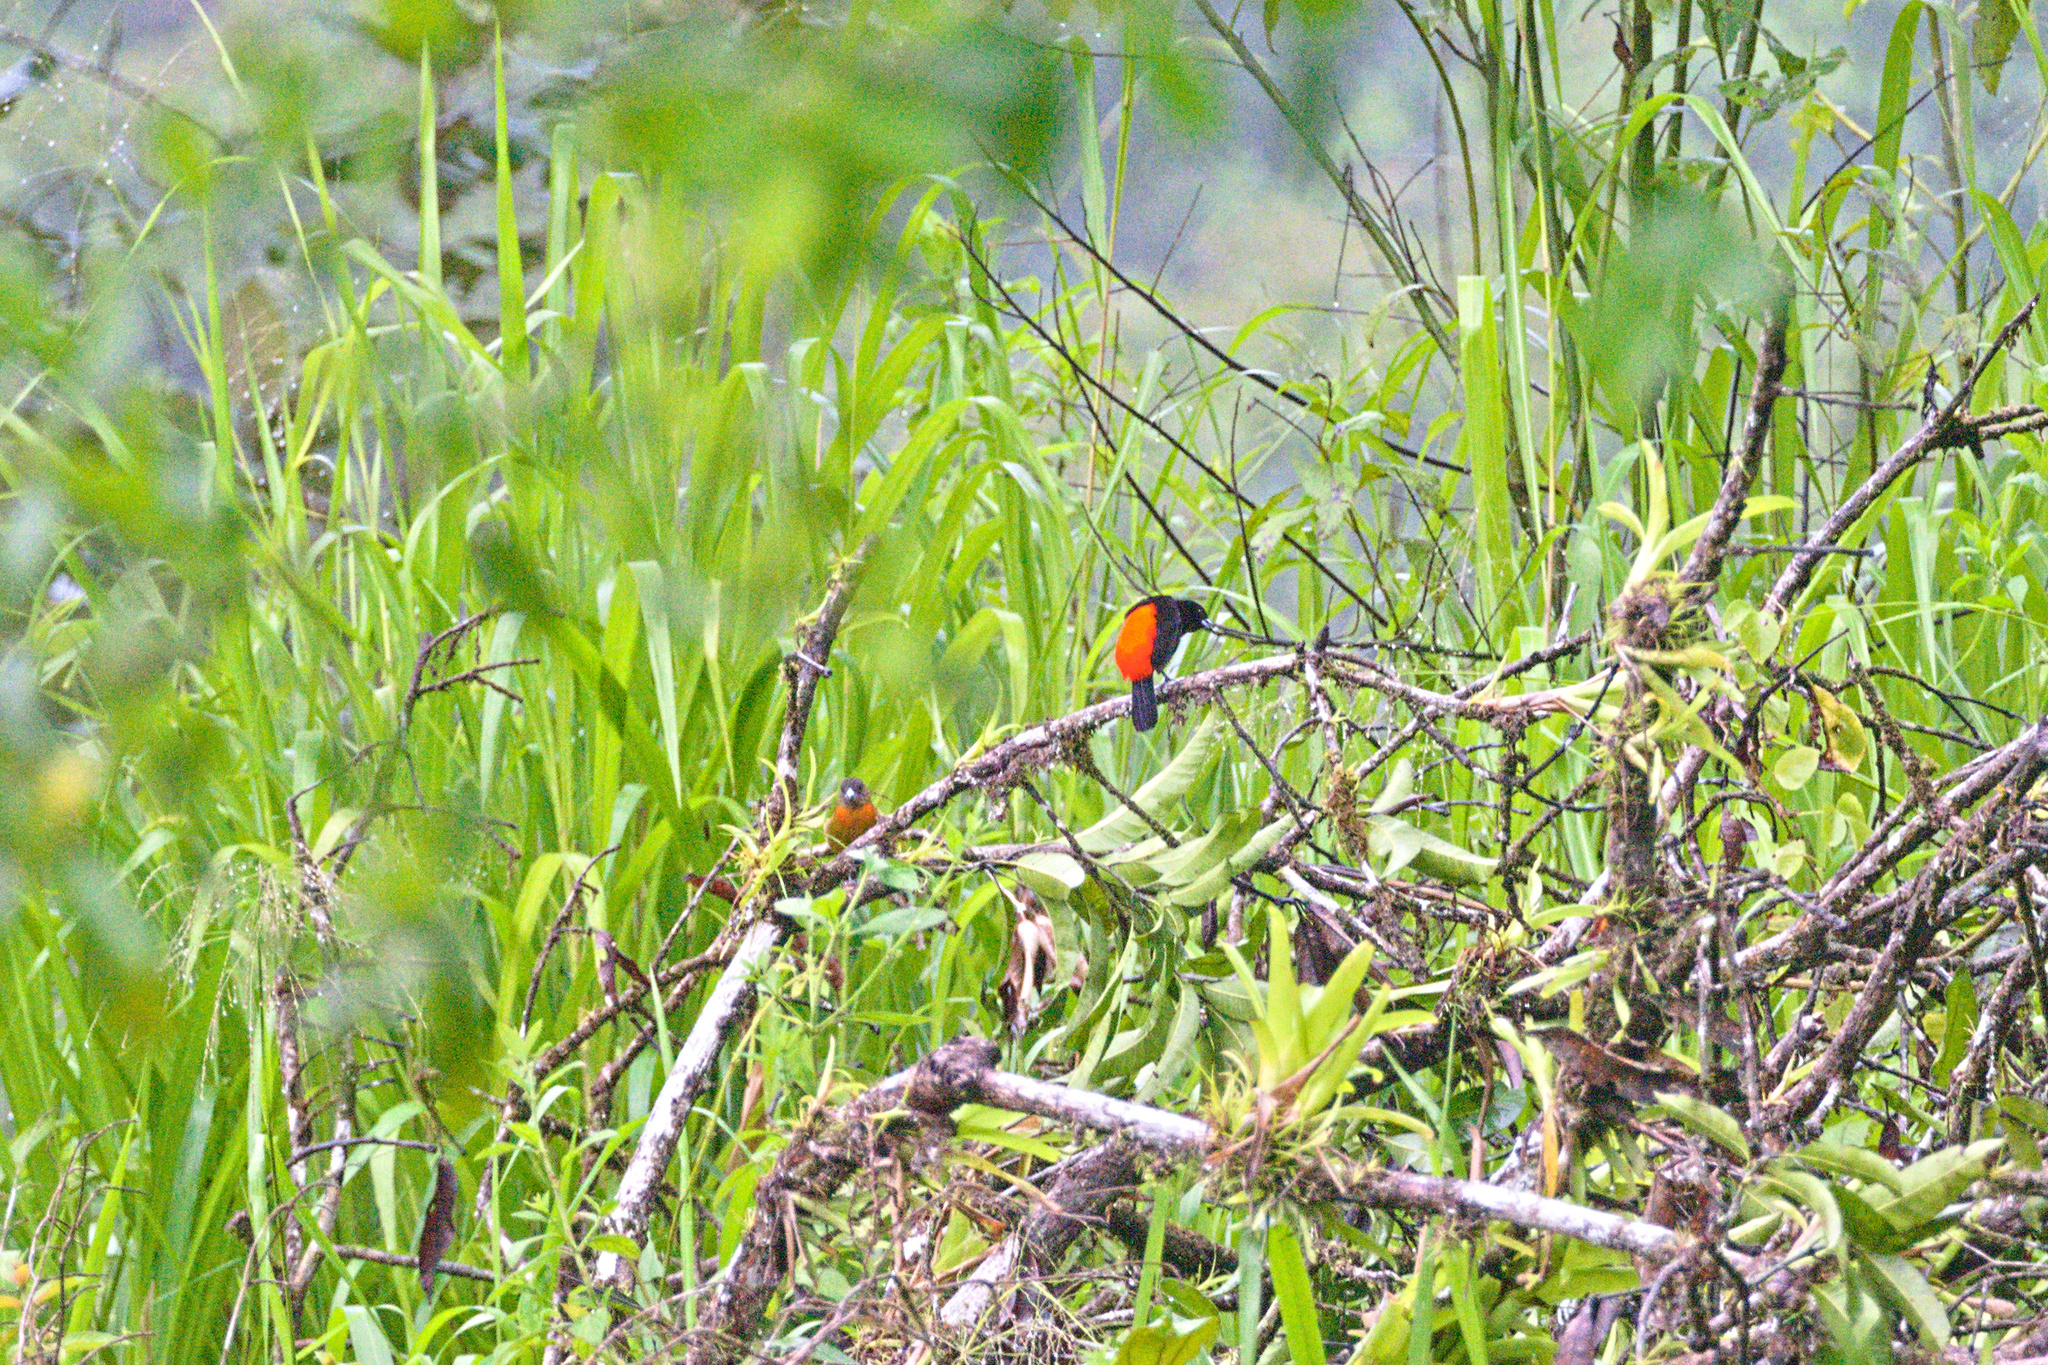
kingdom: Animalia
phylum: Chordata
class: Aves
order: Passeriformes
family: Thraupidae
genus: Ramphocelus
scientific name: Ramphocelus passerinii
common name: Passerini's tanager
